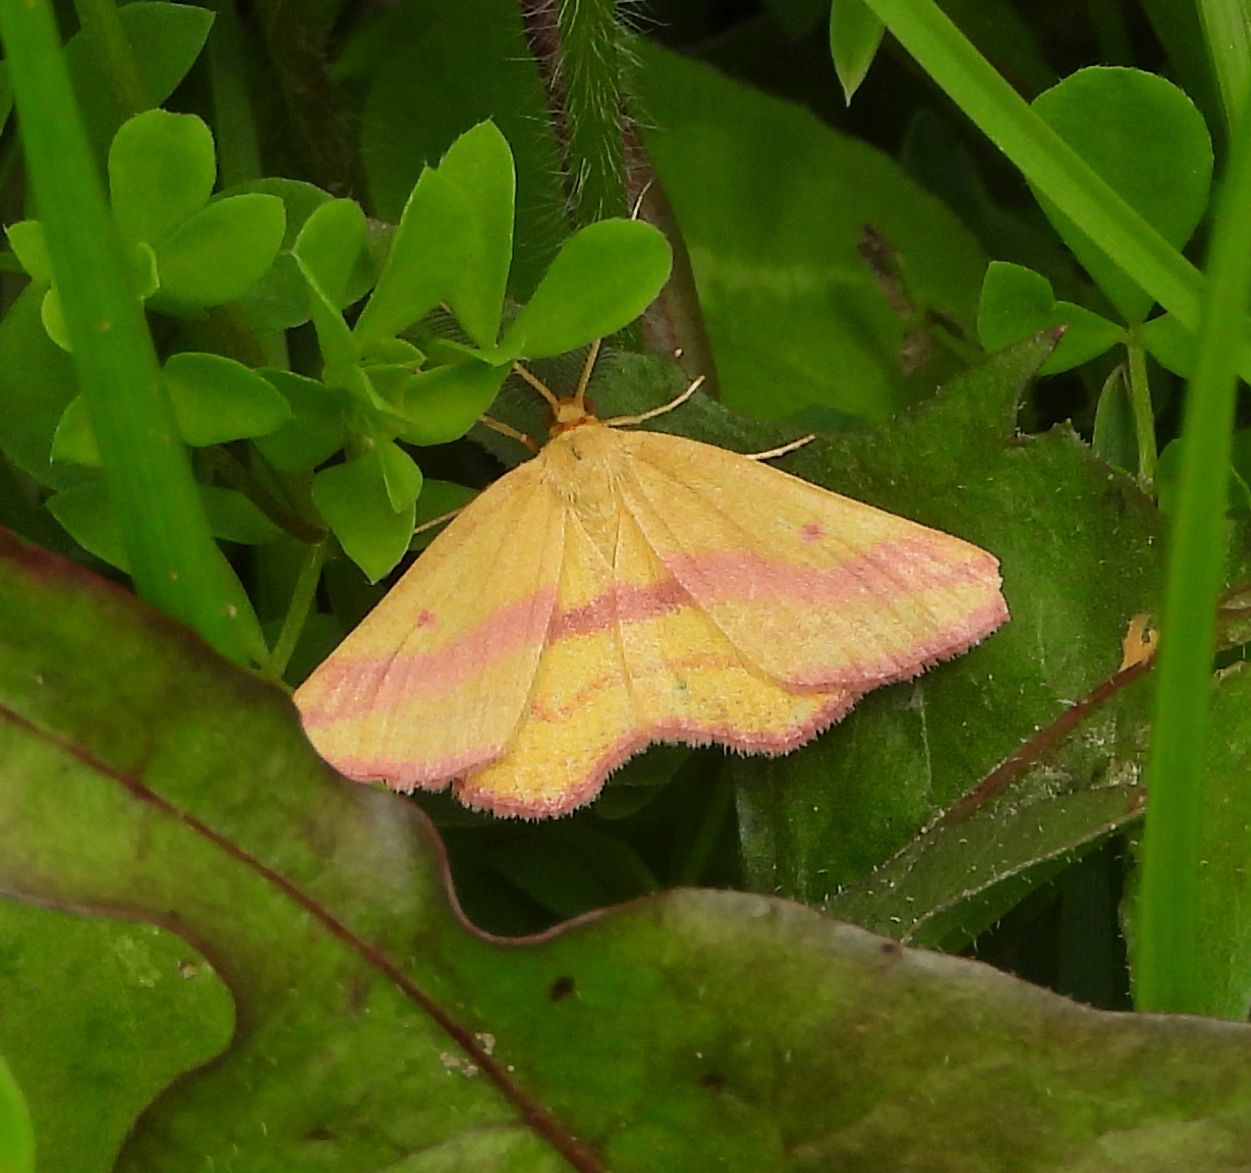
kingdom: Animalia
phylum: Arthropoda
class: Insecta
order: Lepidoptera
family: Geometridae
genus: Haematopis
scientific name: Haematopis grataria
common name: Chickweed geometer
